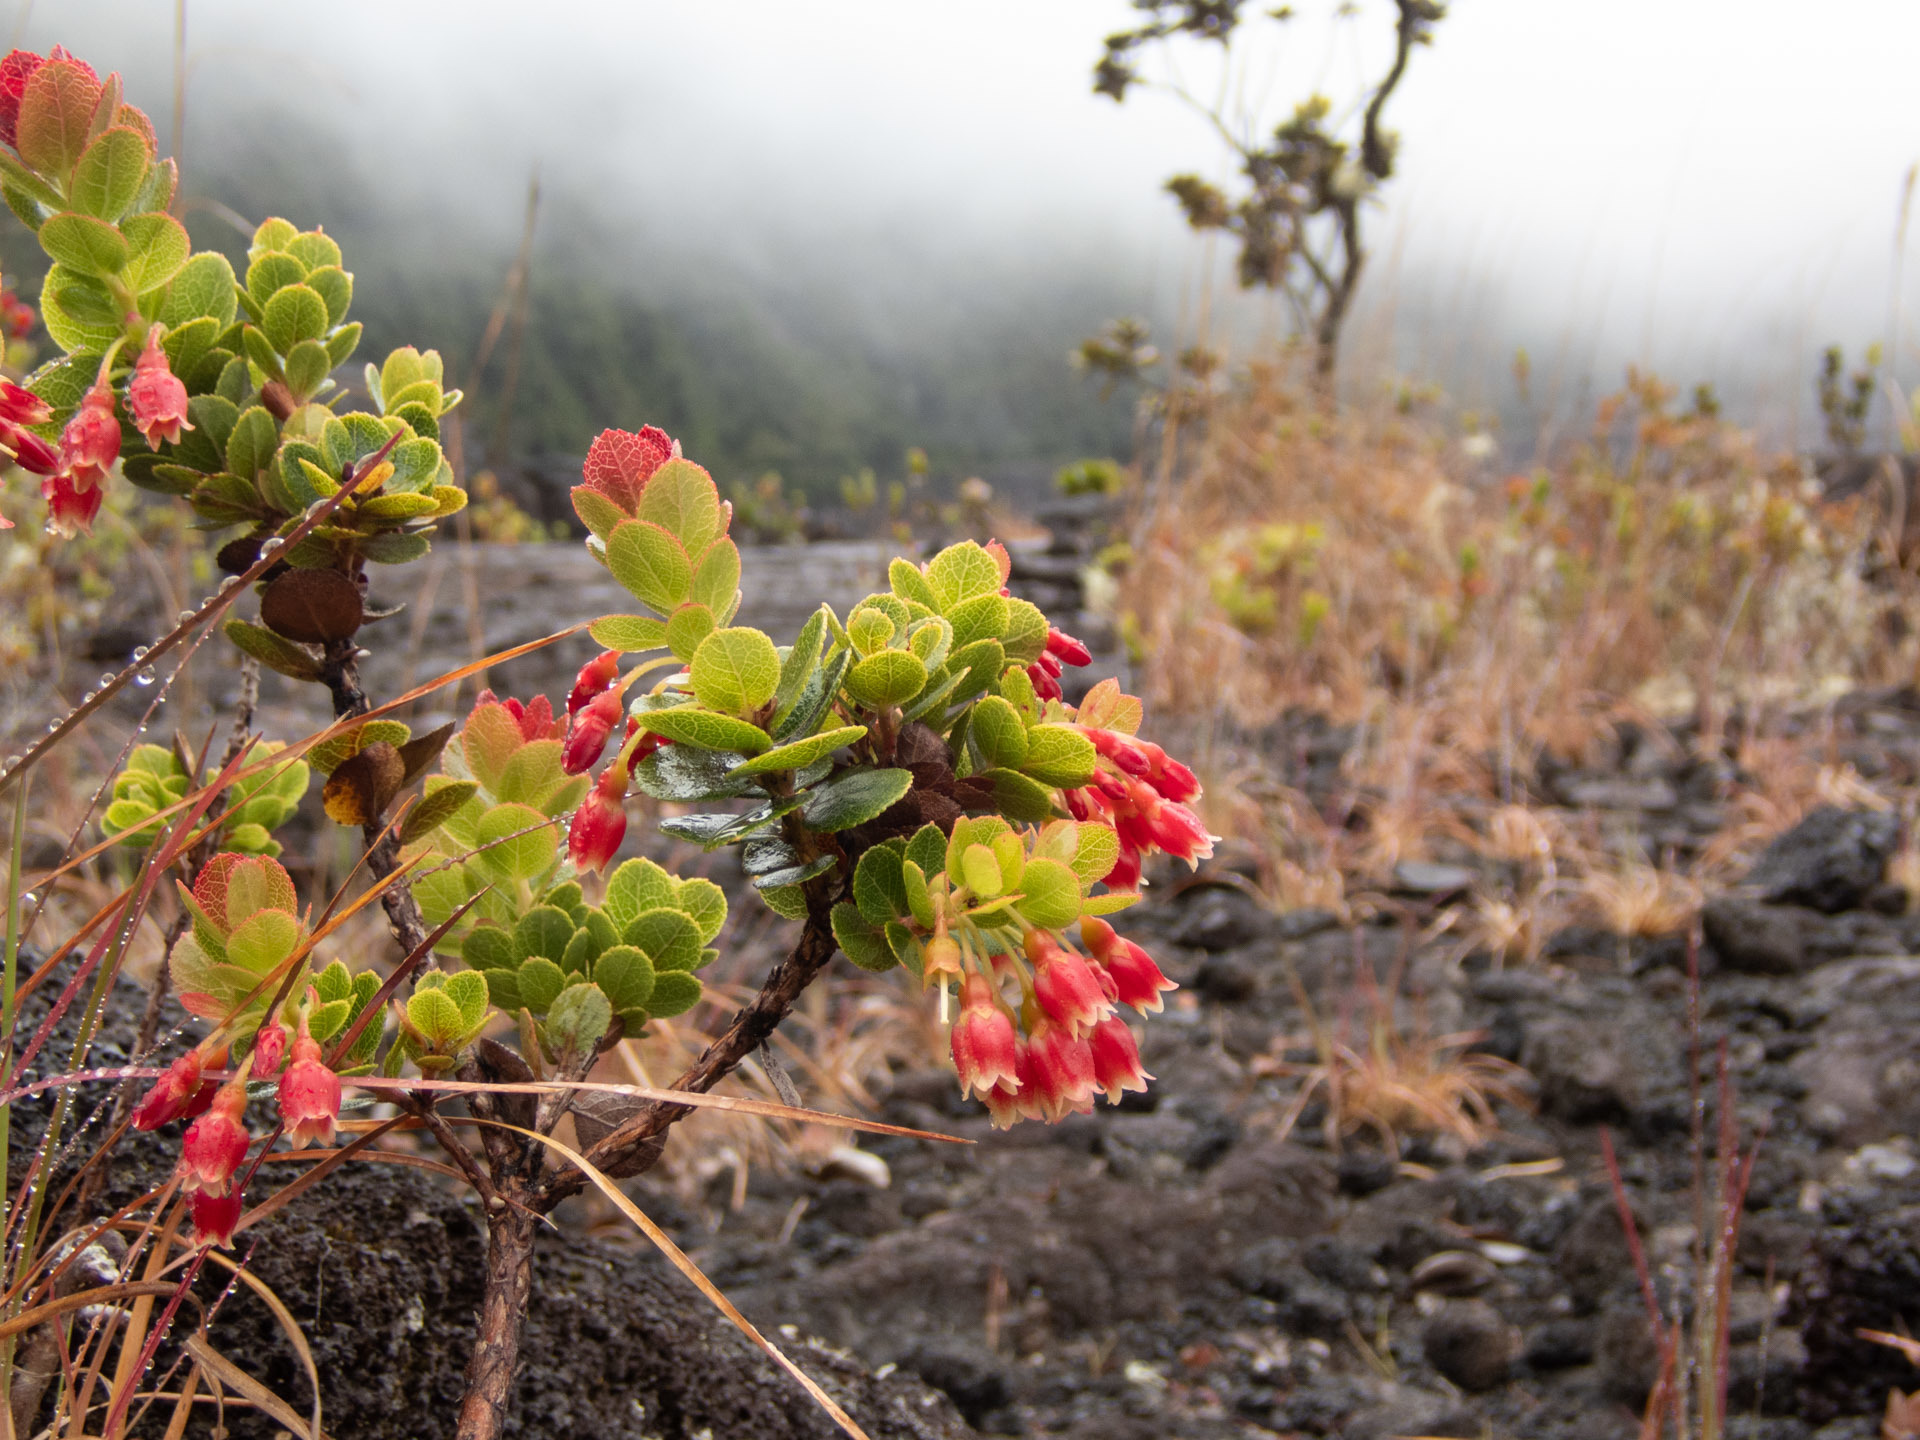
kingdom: Plantae
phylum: Tracheophyta
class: Magnoliopsida
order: Ericales
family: Ericaceae
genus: Vaccinium
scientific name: Vaccinium reticulatum
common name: Ohelo
